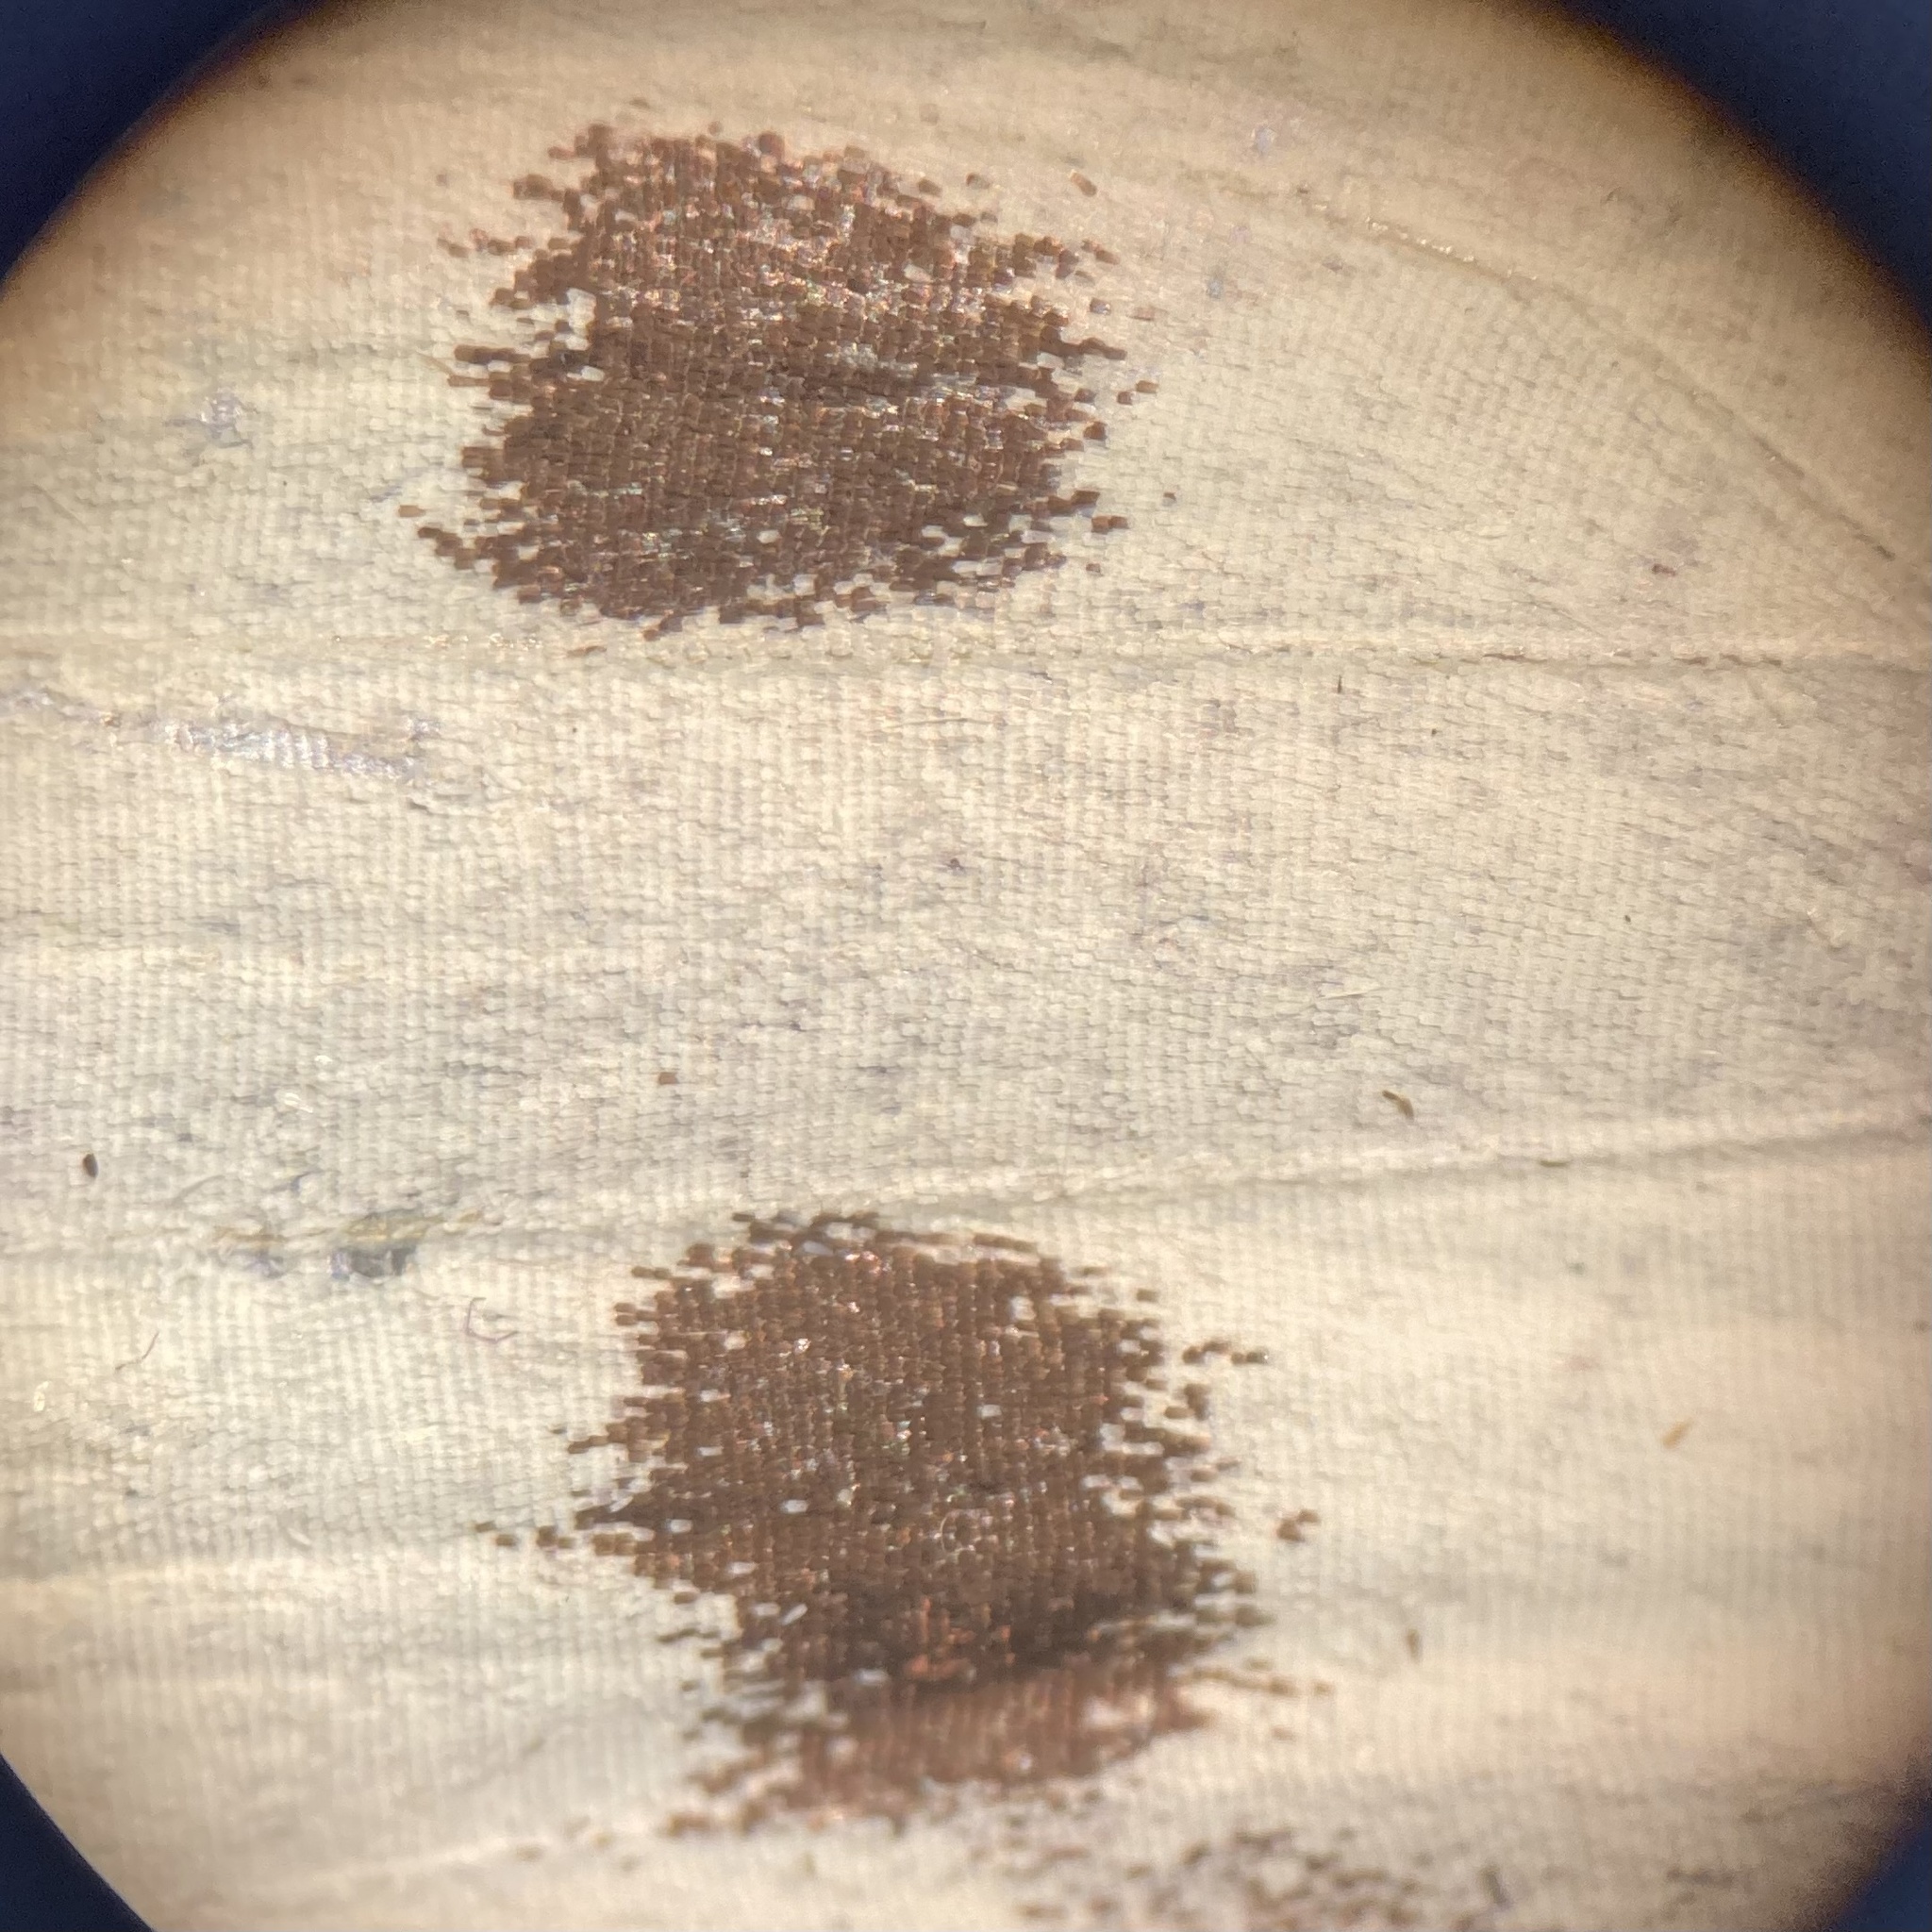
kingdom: Animalia
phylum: Arthropoda
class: Insecta
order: Lepidoptera
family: Pieridae
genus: Pieris
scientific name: Pieris rapae
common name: Small white
